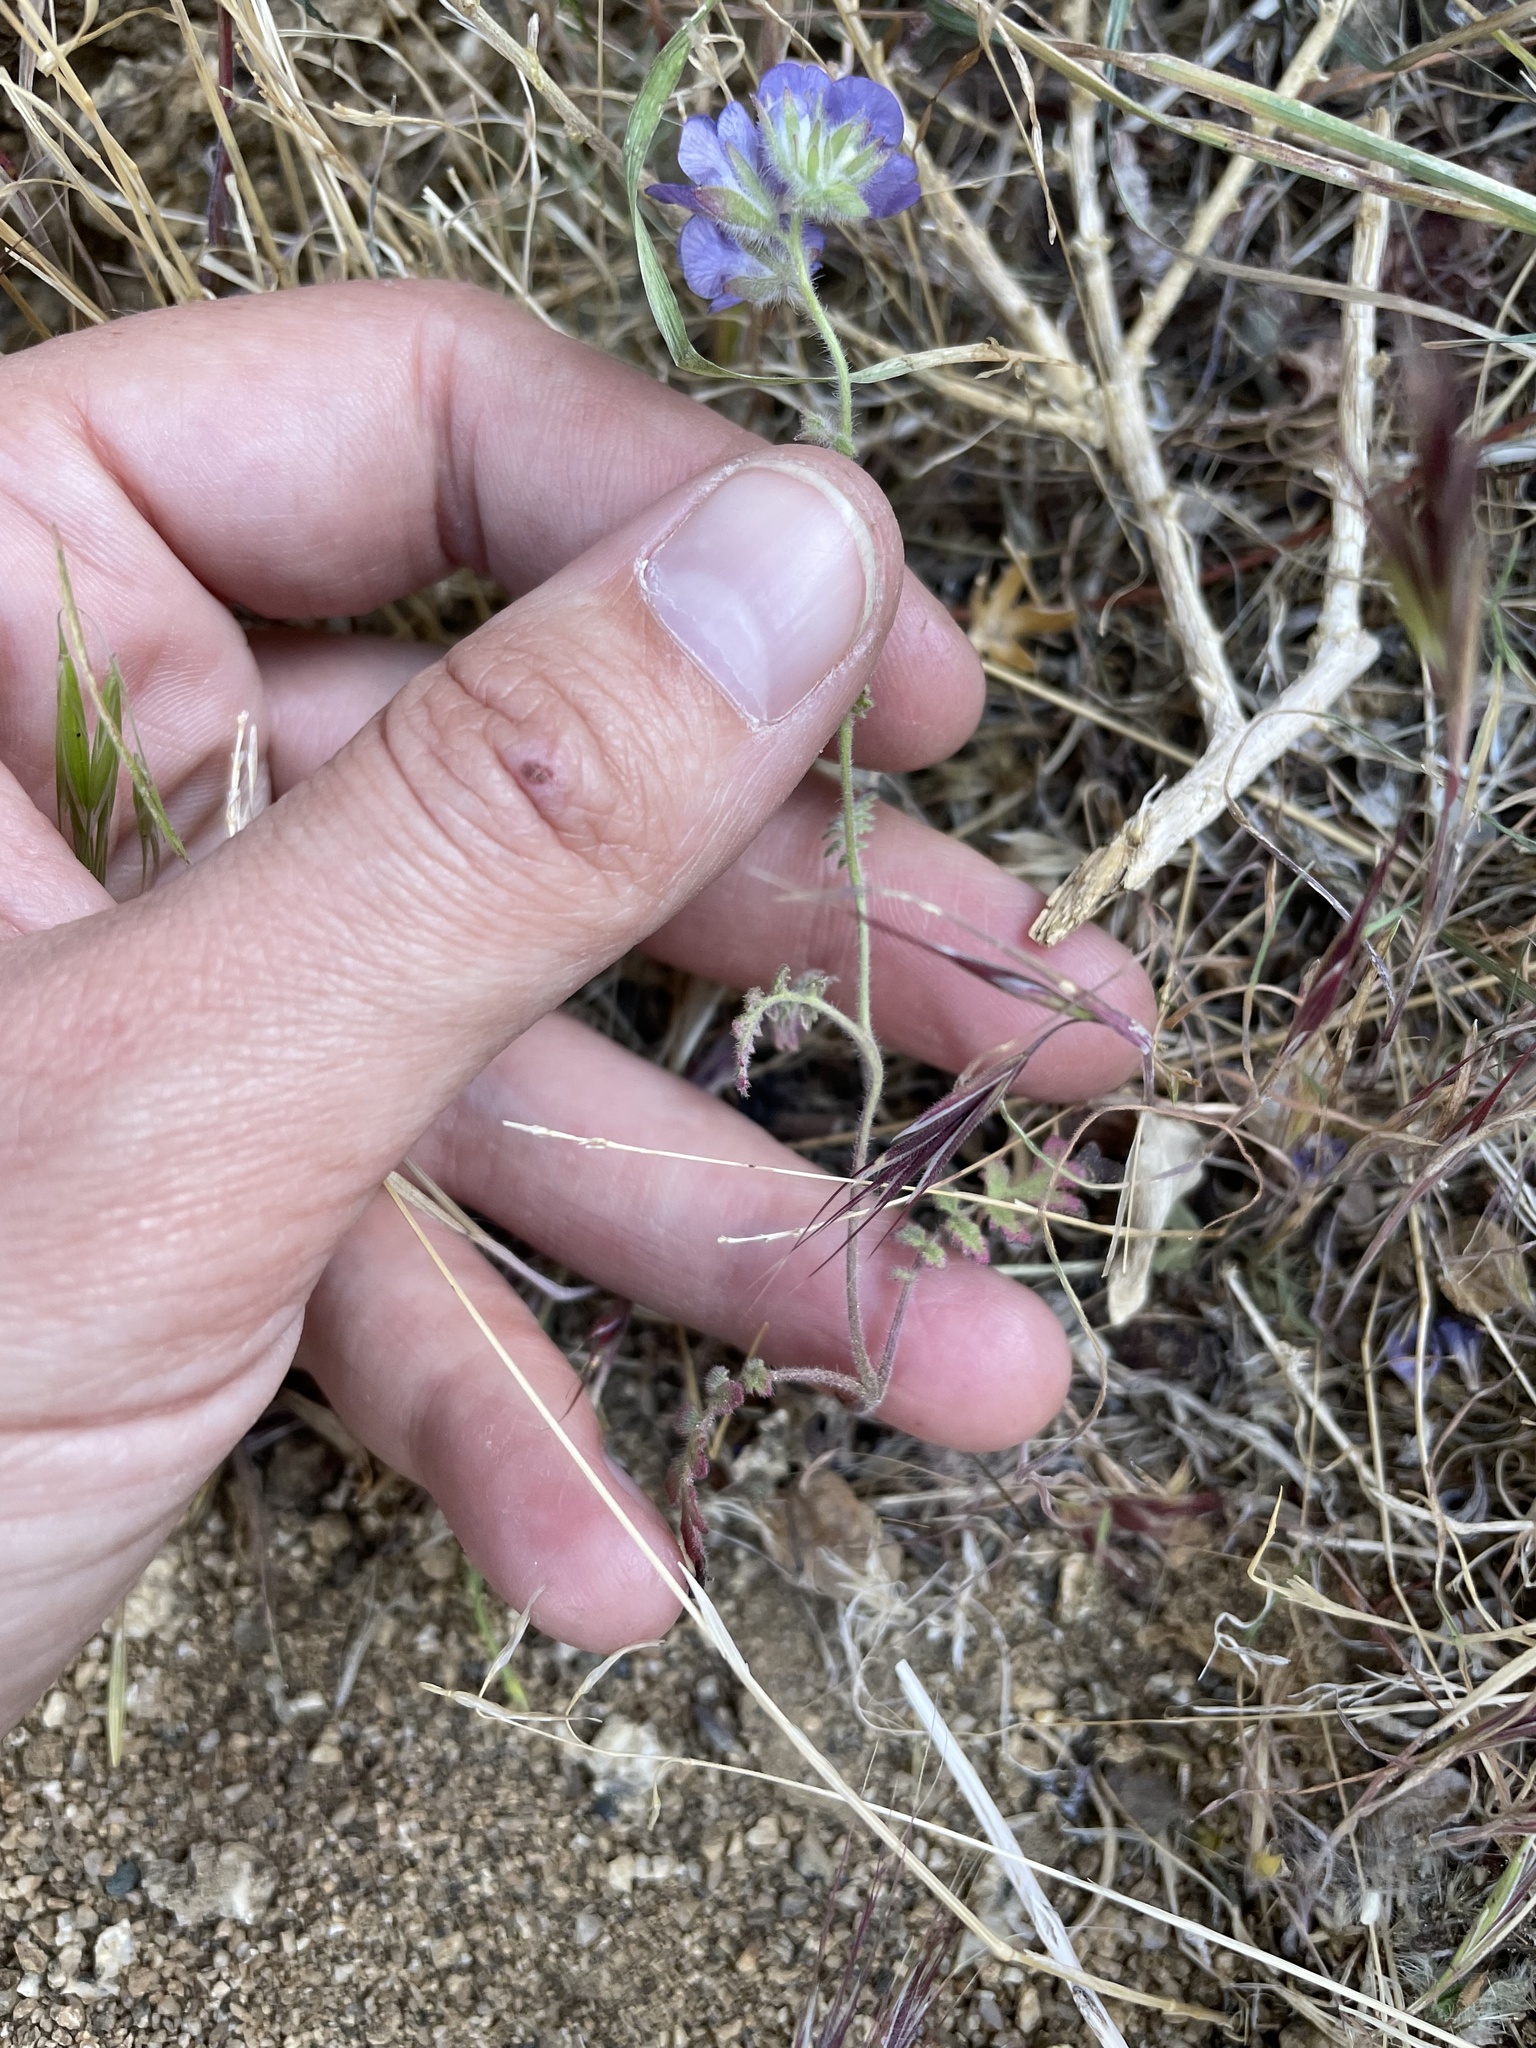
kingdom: Plantae
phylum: Tracheophyta
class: Magnoliopsida
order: Boraginales
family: Hydrophyllaceae
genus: Phacelia
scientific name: Phacelia distans
